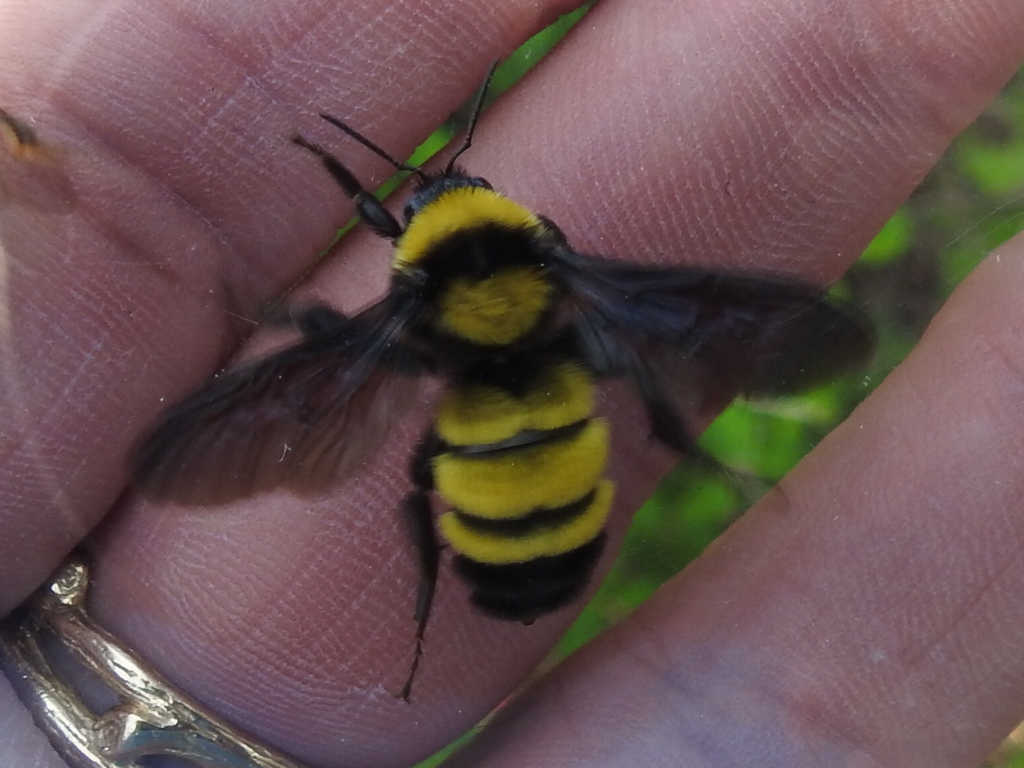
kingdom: Animalia
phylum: Arthropoda
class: Insecta
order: Hymenoptera
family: Apidae
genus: Bombus
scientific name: Bombus sonorus
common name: Sonoran bumble bee
